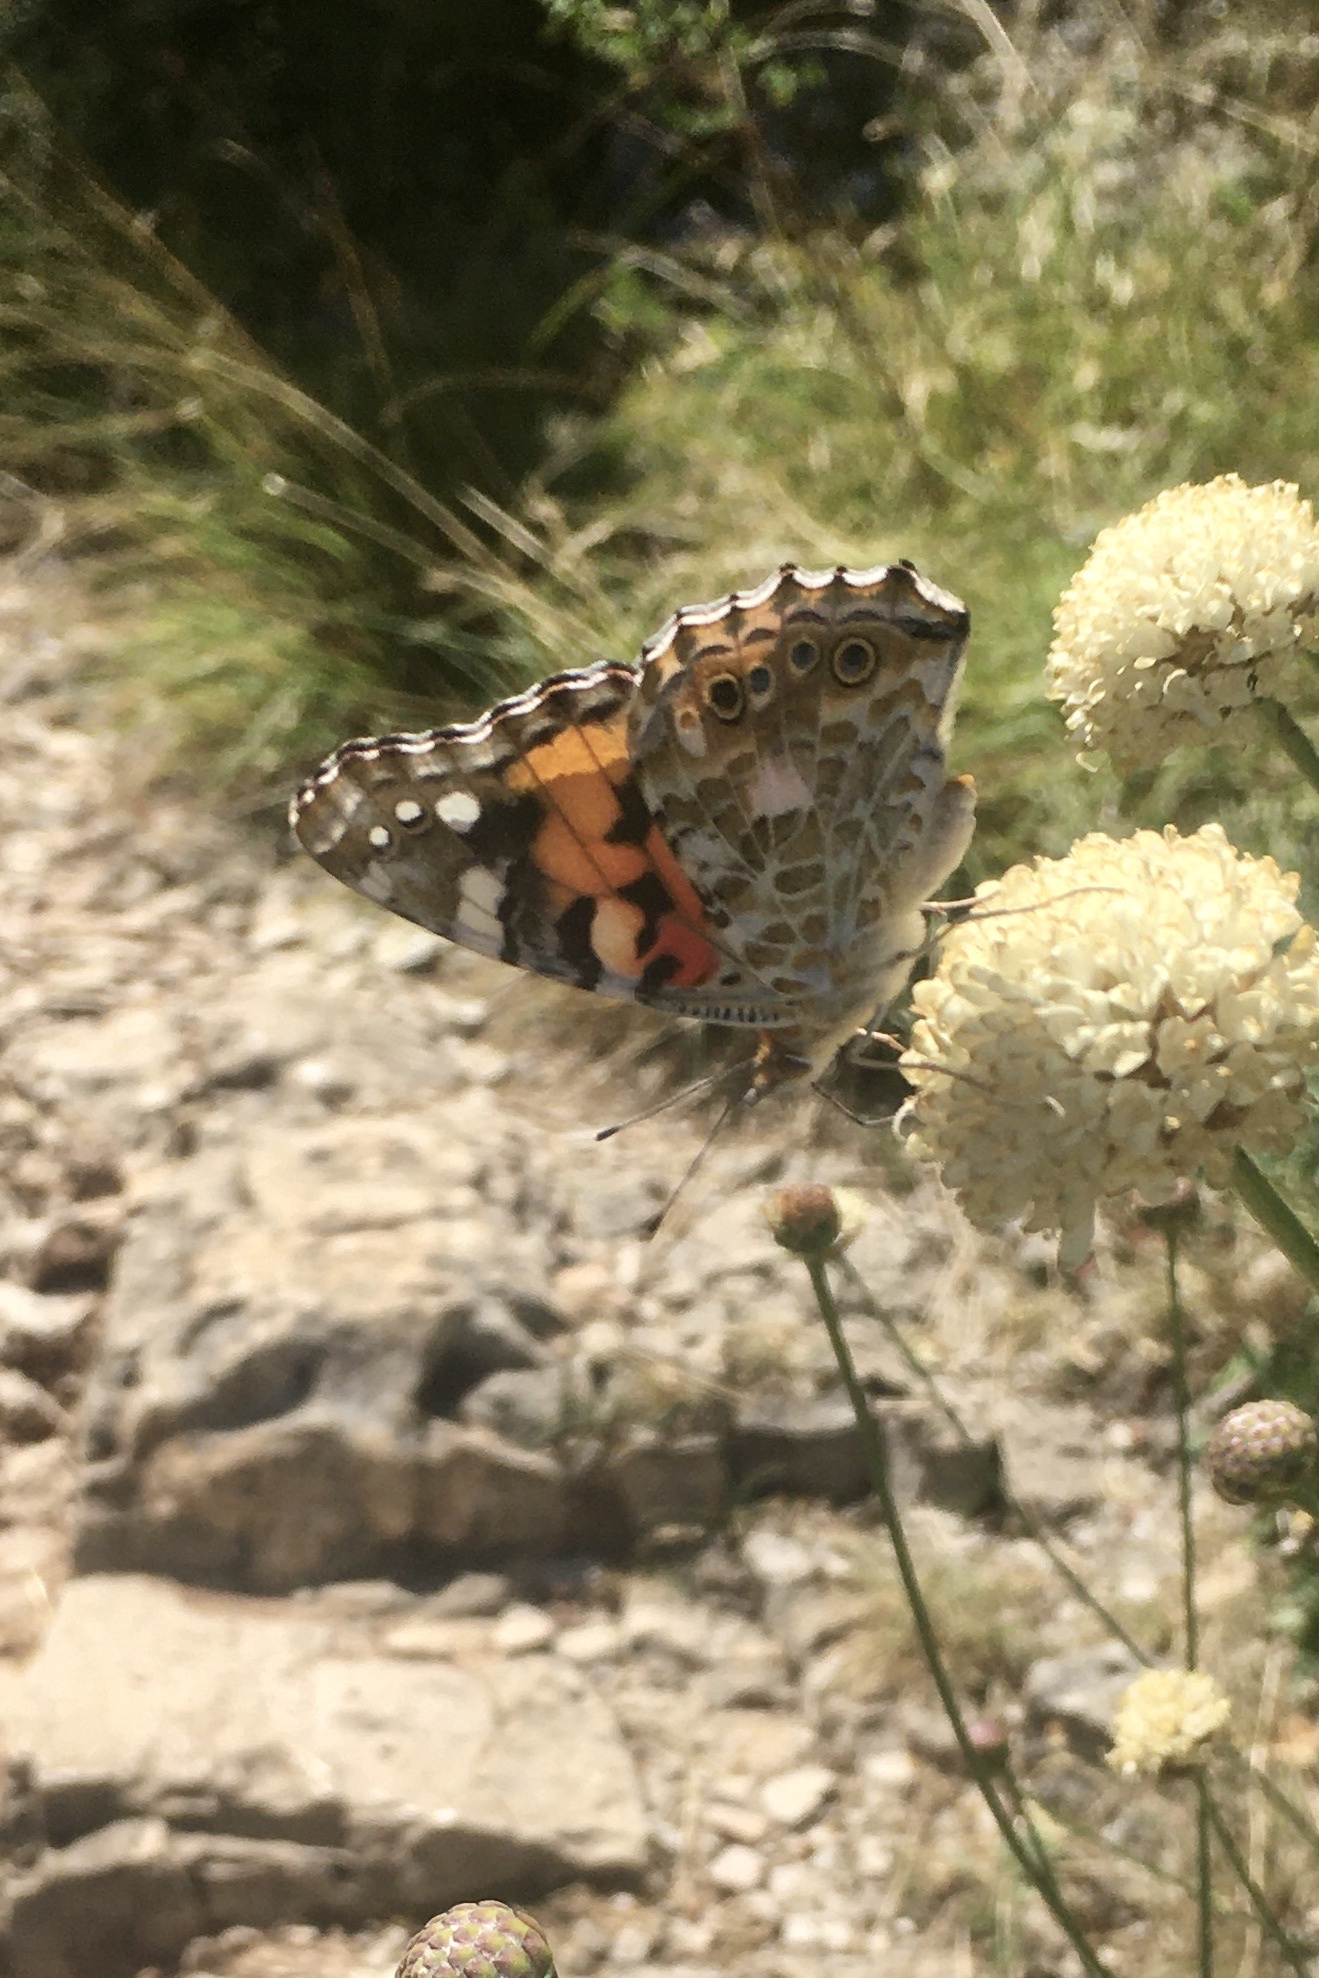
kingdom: Animalia
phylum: Arthropoda
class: Insecta
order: Lepidoptera
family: Nymphalidae
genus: Vanessa
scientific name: Vanessa cardui
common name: Painted lady
